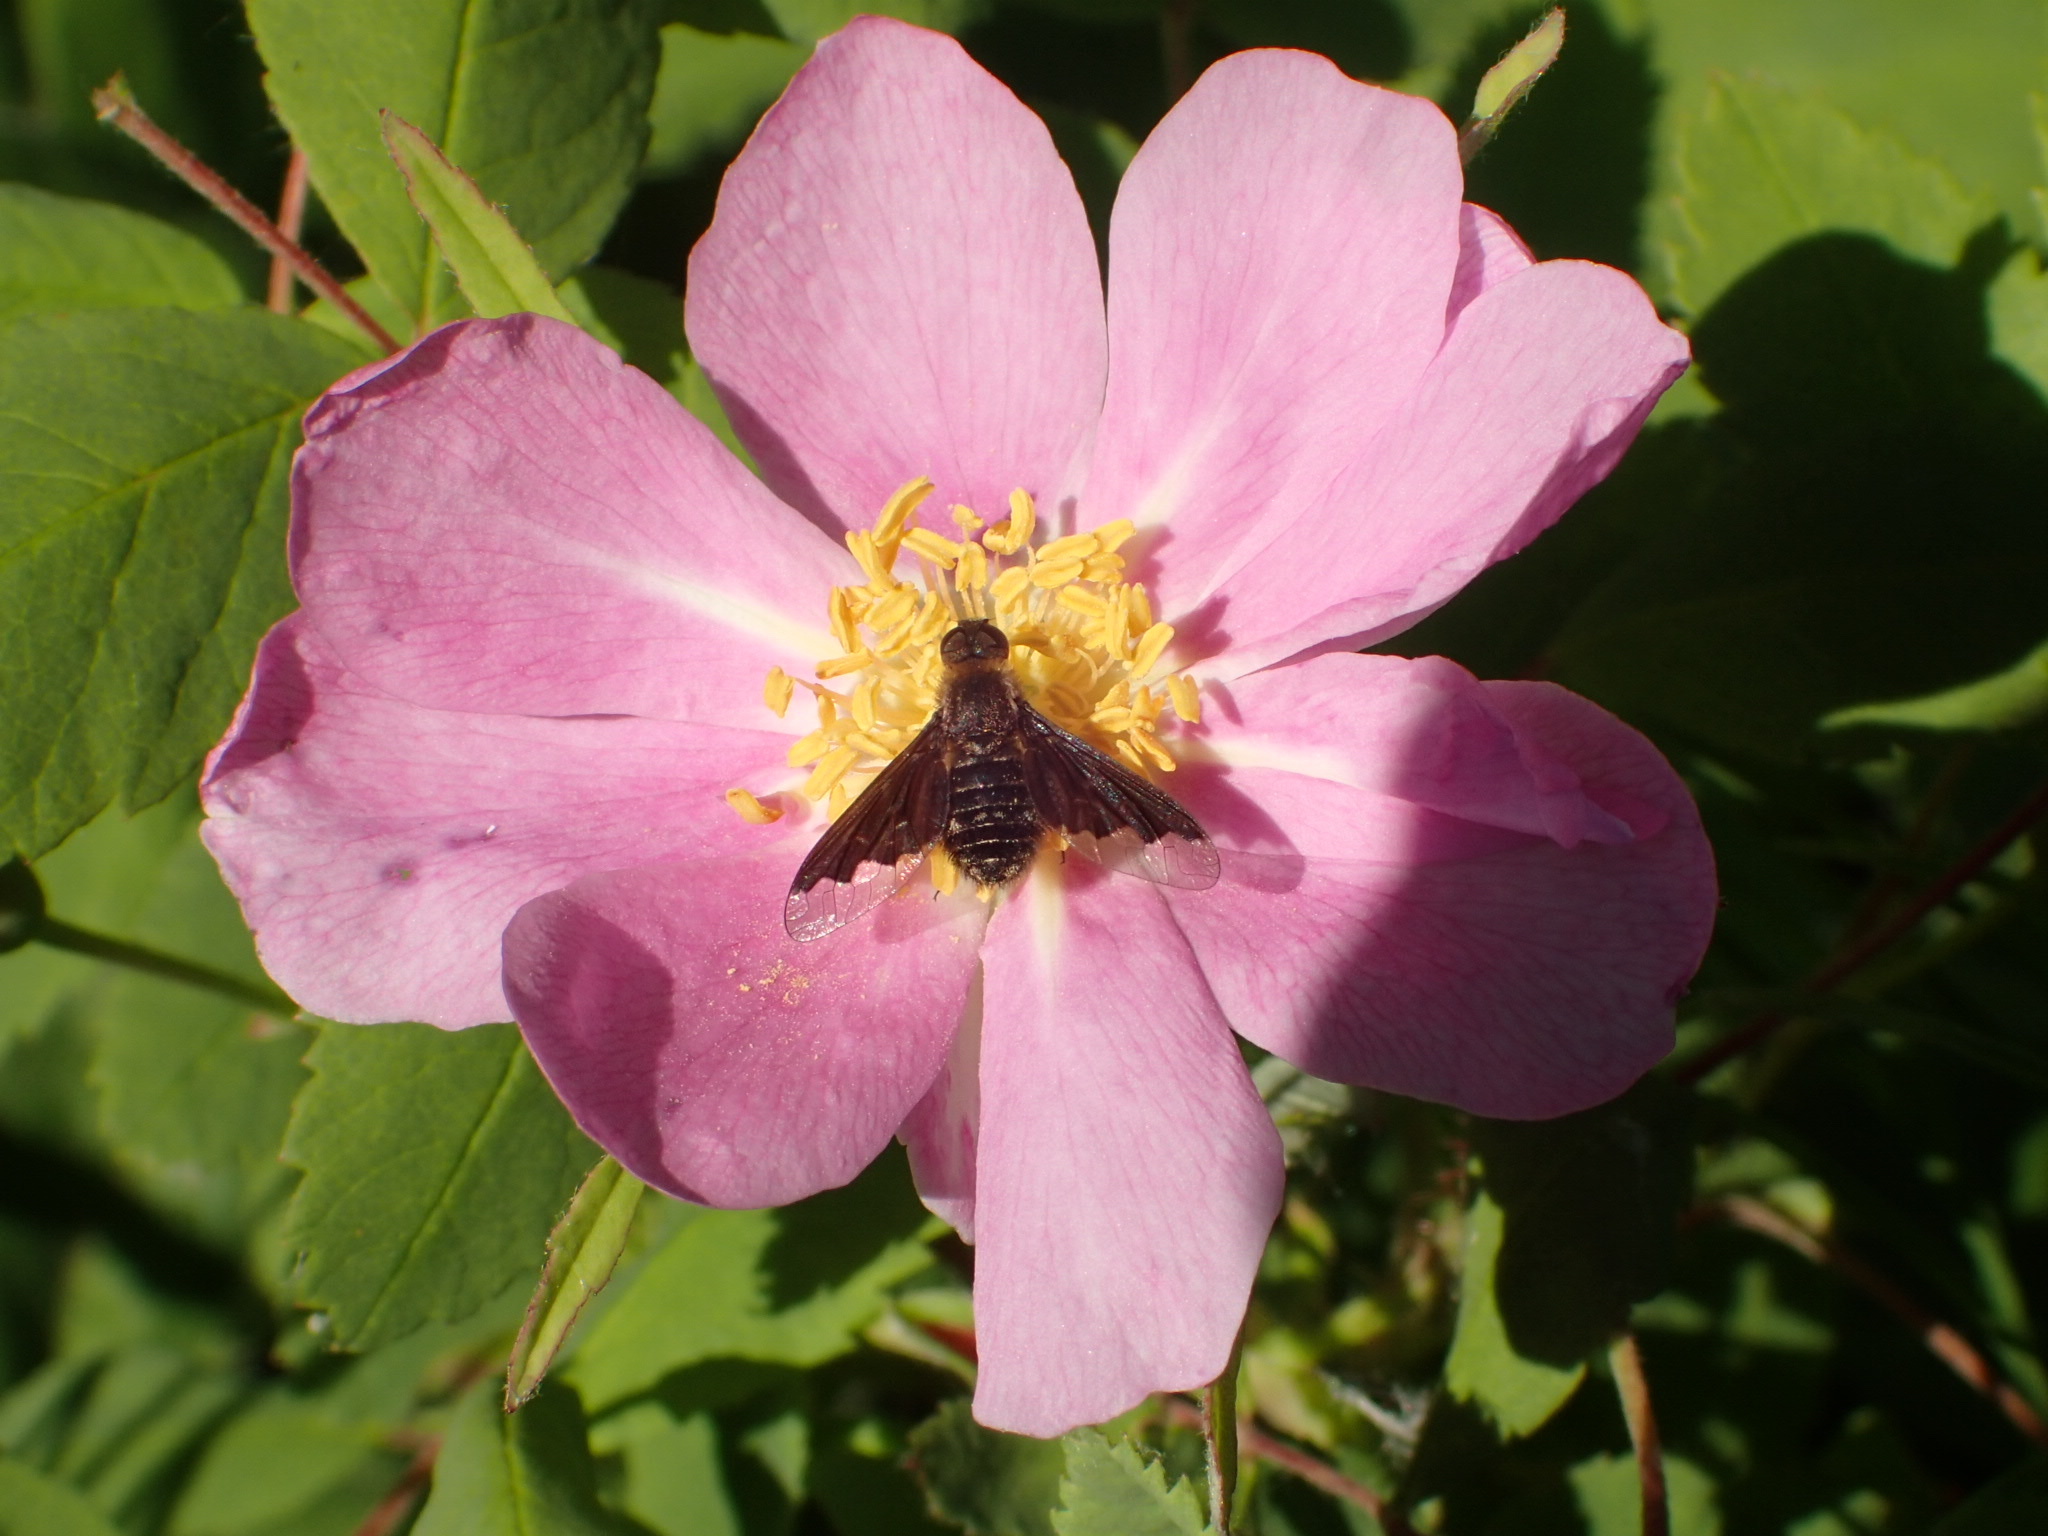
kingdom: Animalia
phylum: Arthropoda
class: Insecta
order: Diptera
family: Bombyliidae
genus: Hemipenthes
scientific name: Hemipenthes morioides
